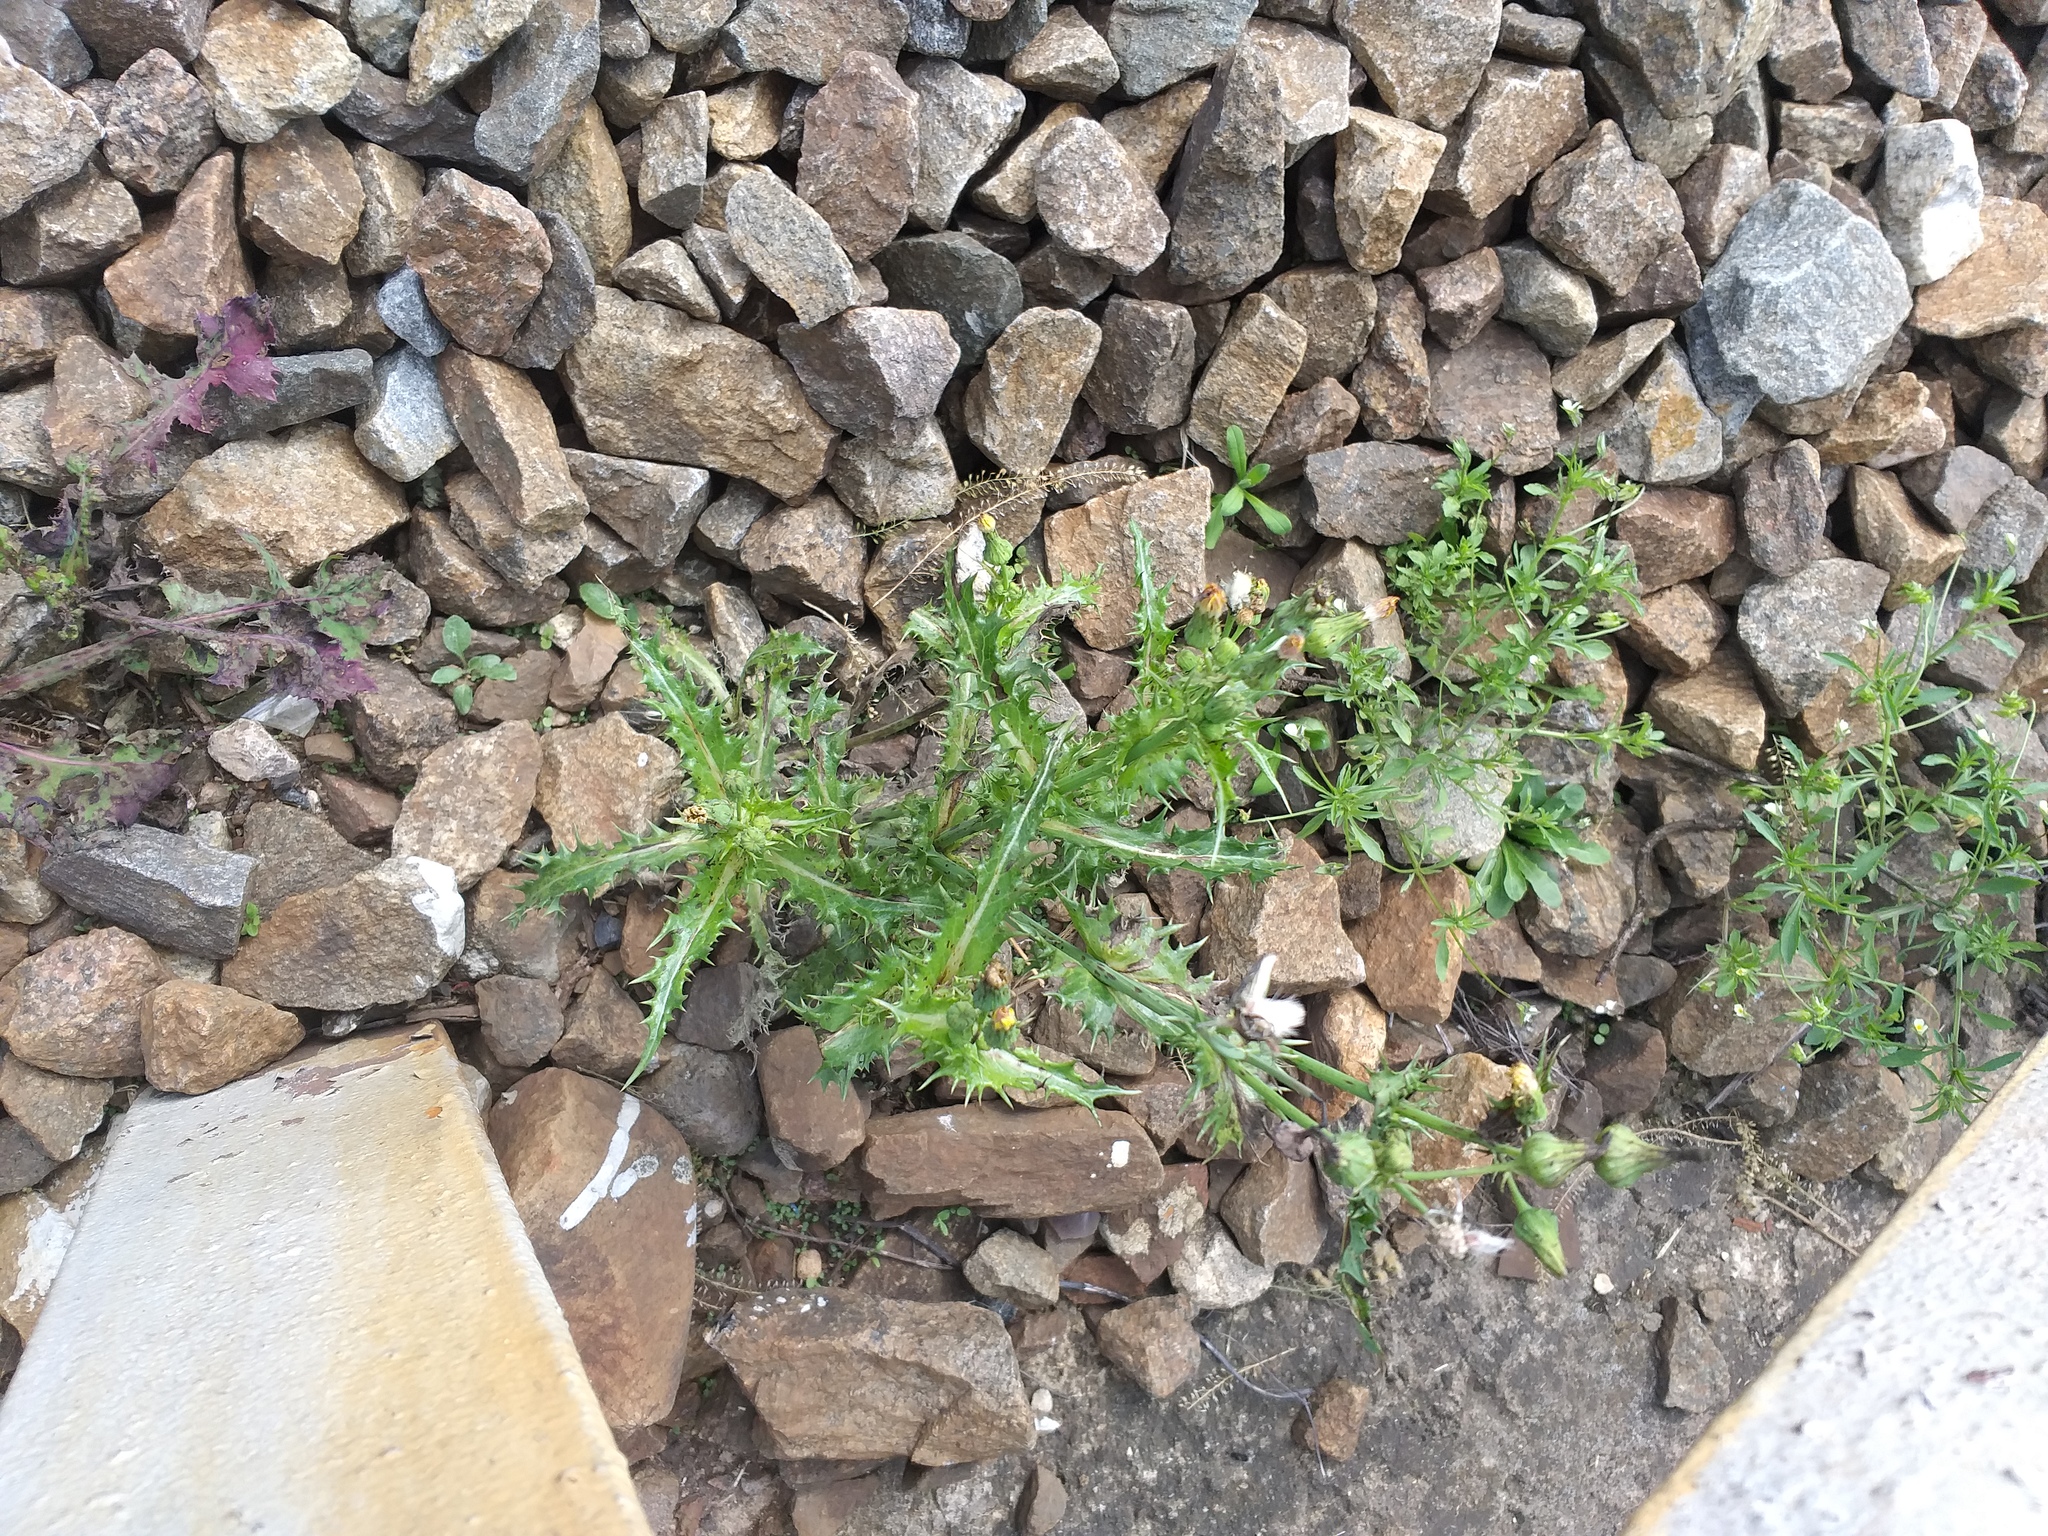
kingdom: Plantae
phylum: Tracheophyta
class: Magnoliopsida
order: Asterales
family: Asteraceae
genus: Sonchus
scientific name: Sonchus asper
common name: Prickly sow-thistle
